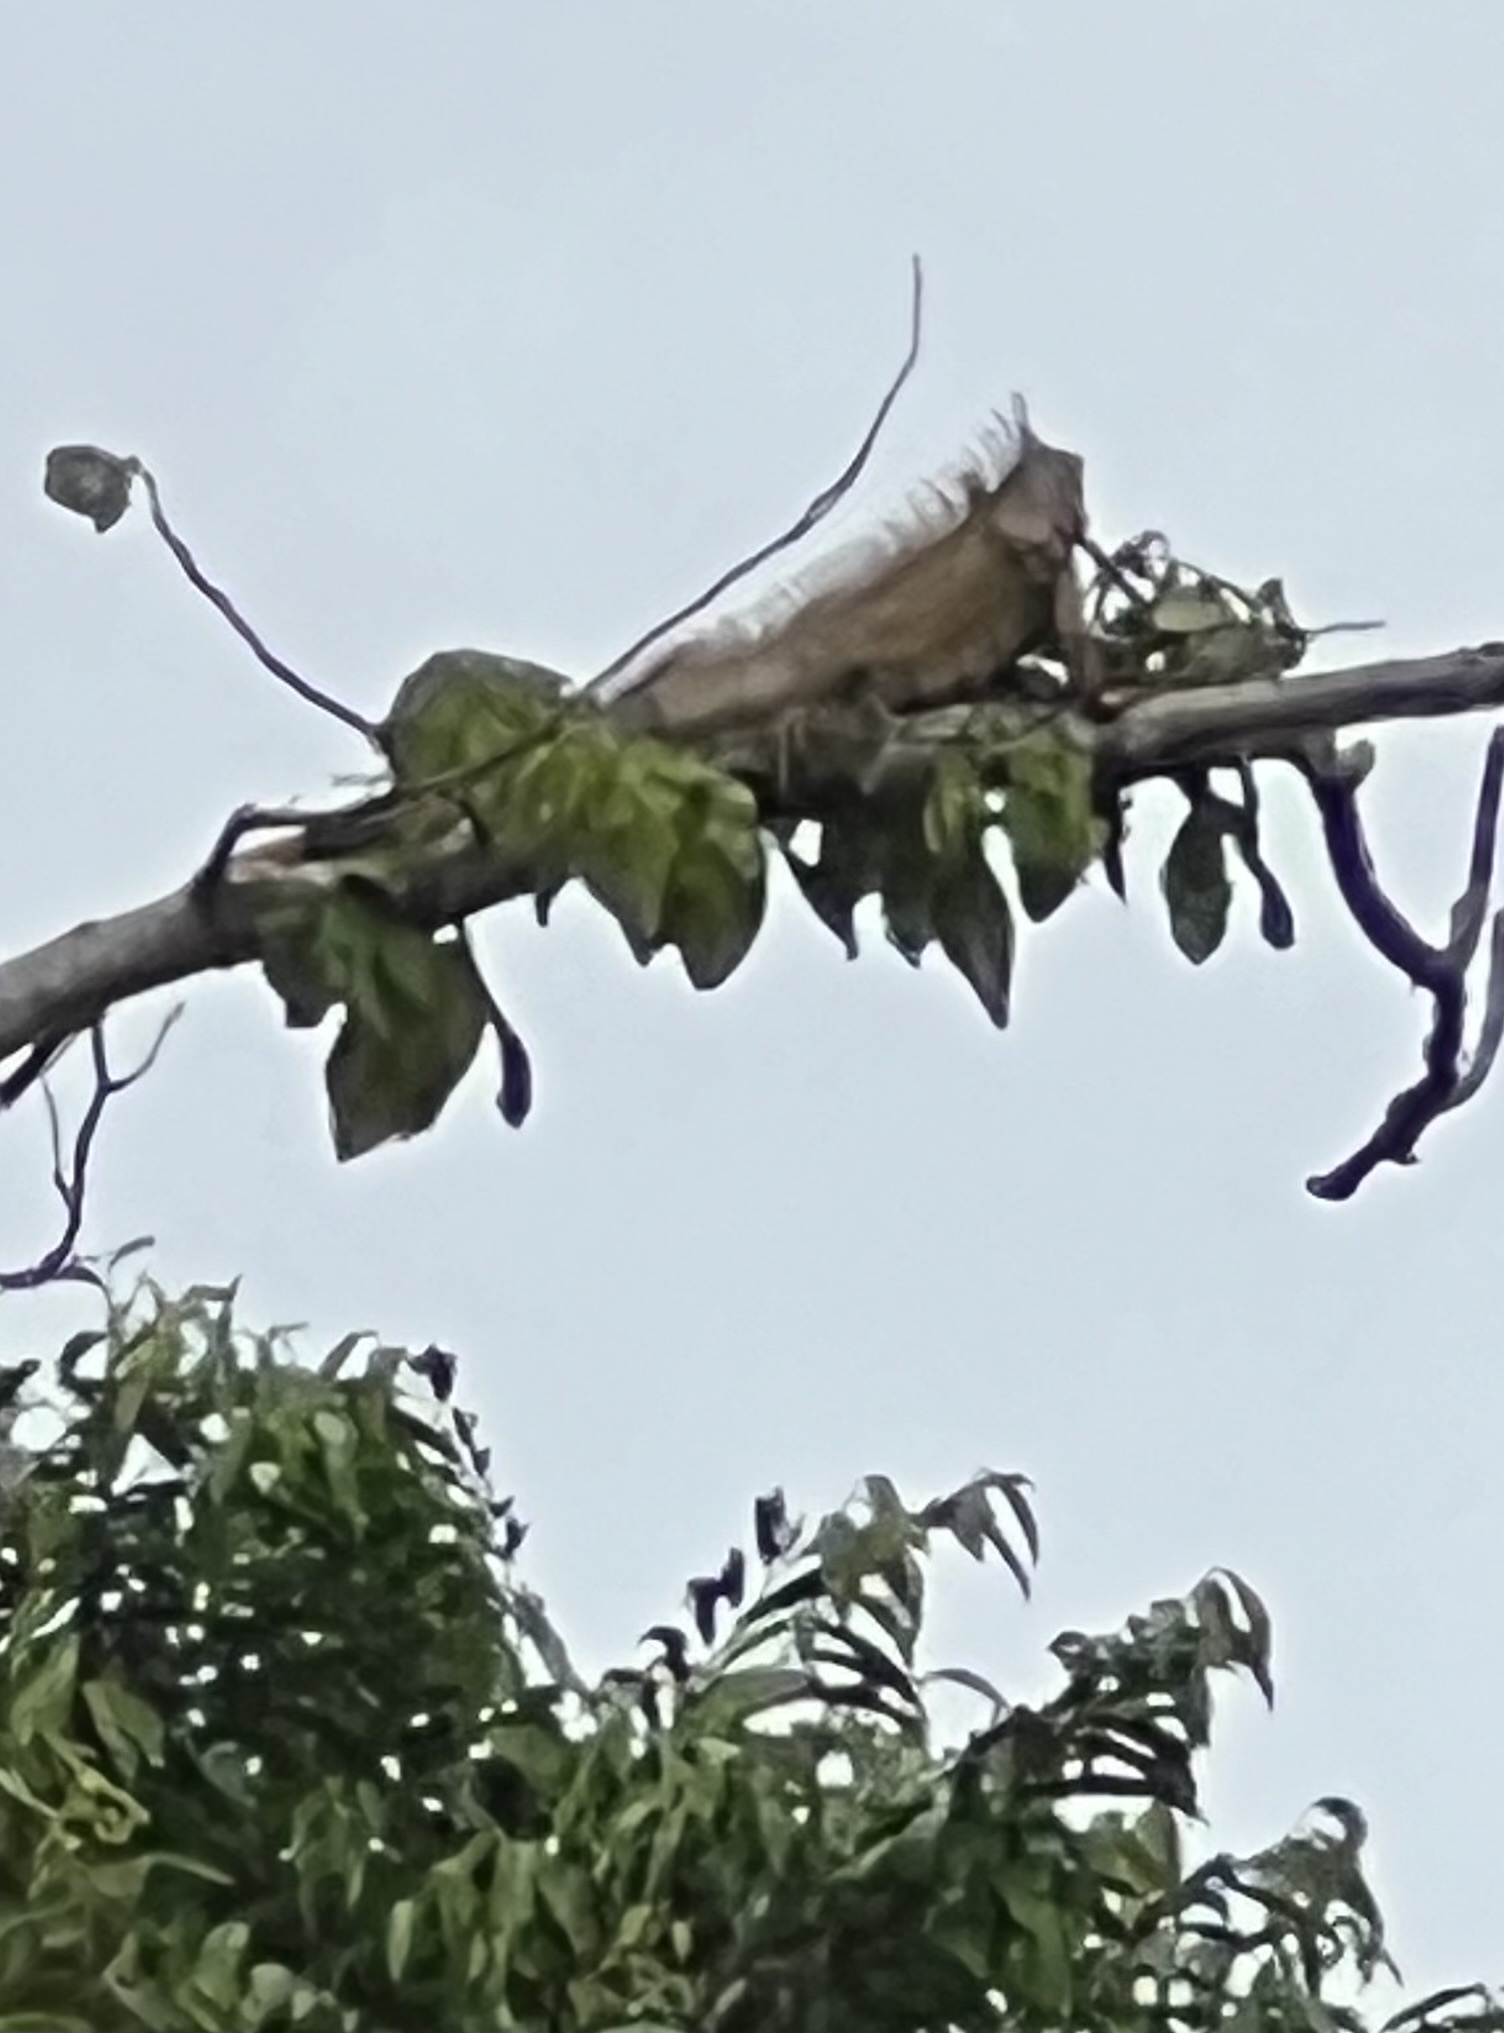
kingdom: Animalia
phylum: Chordata
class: Squamata
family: Iguanidae
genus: Iguana
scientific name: Iguana iguana
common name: Green iguana
